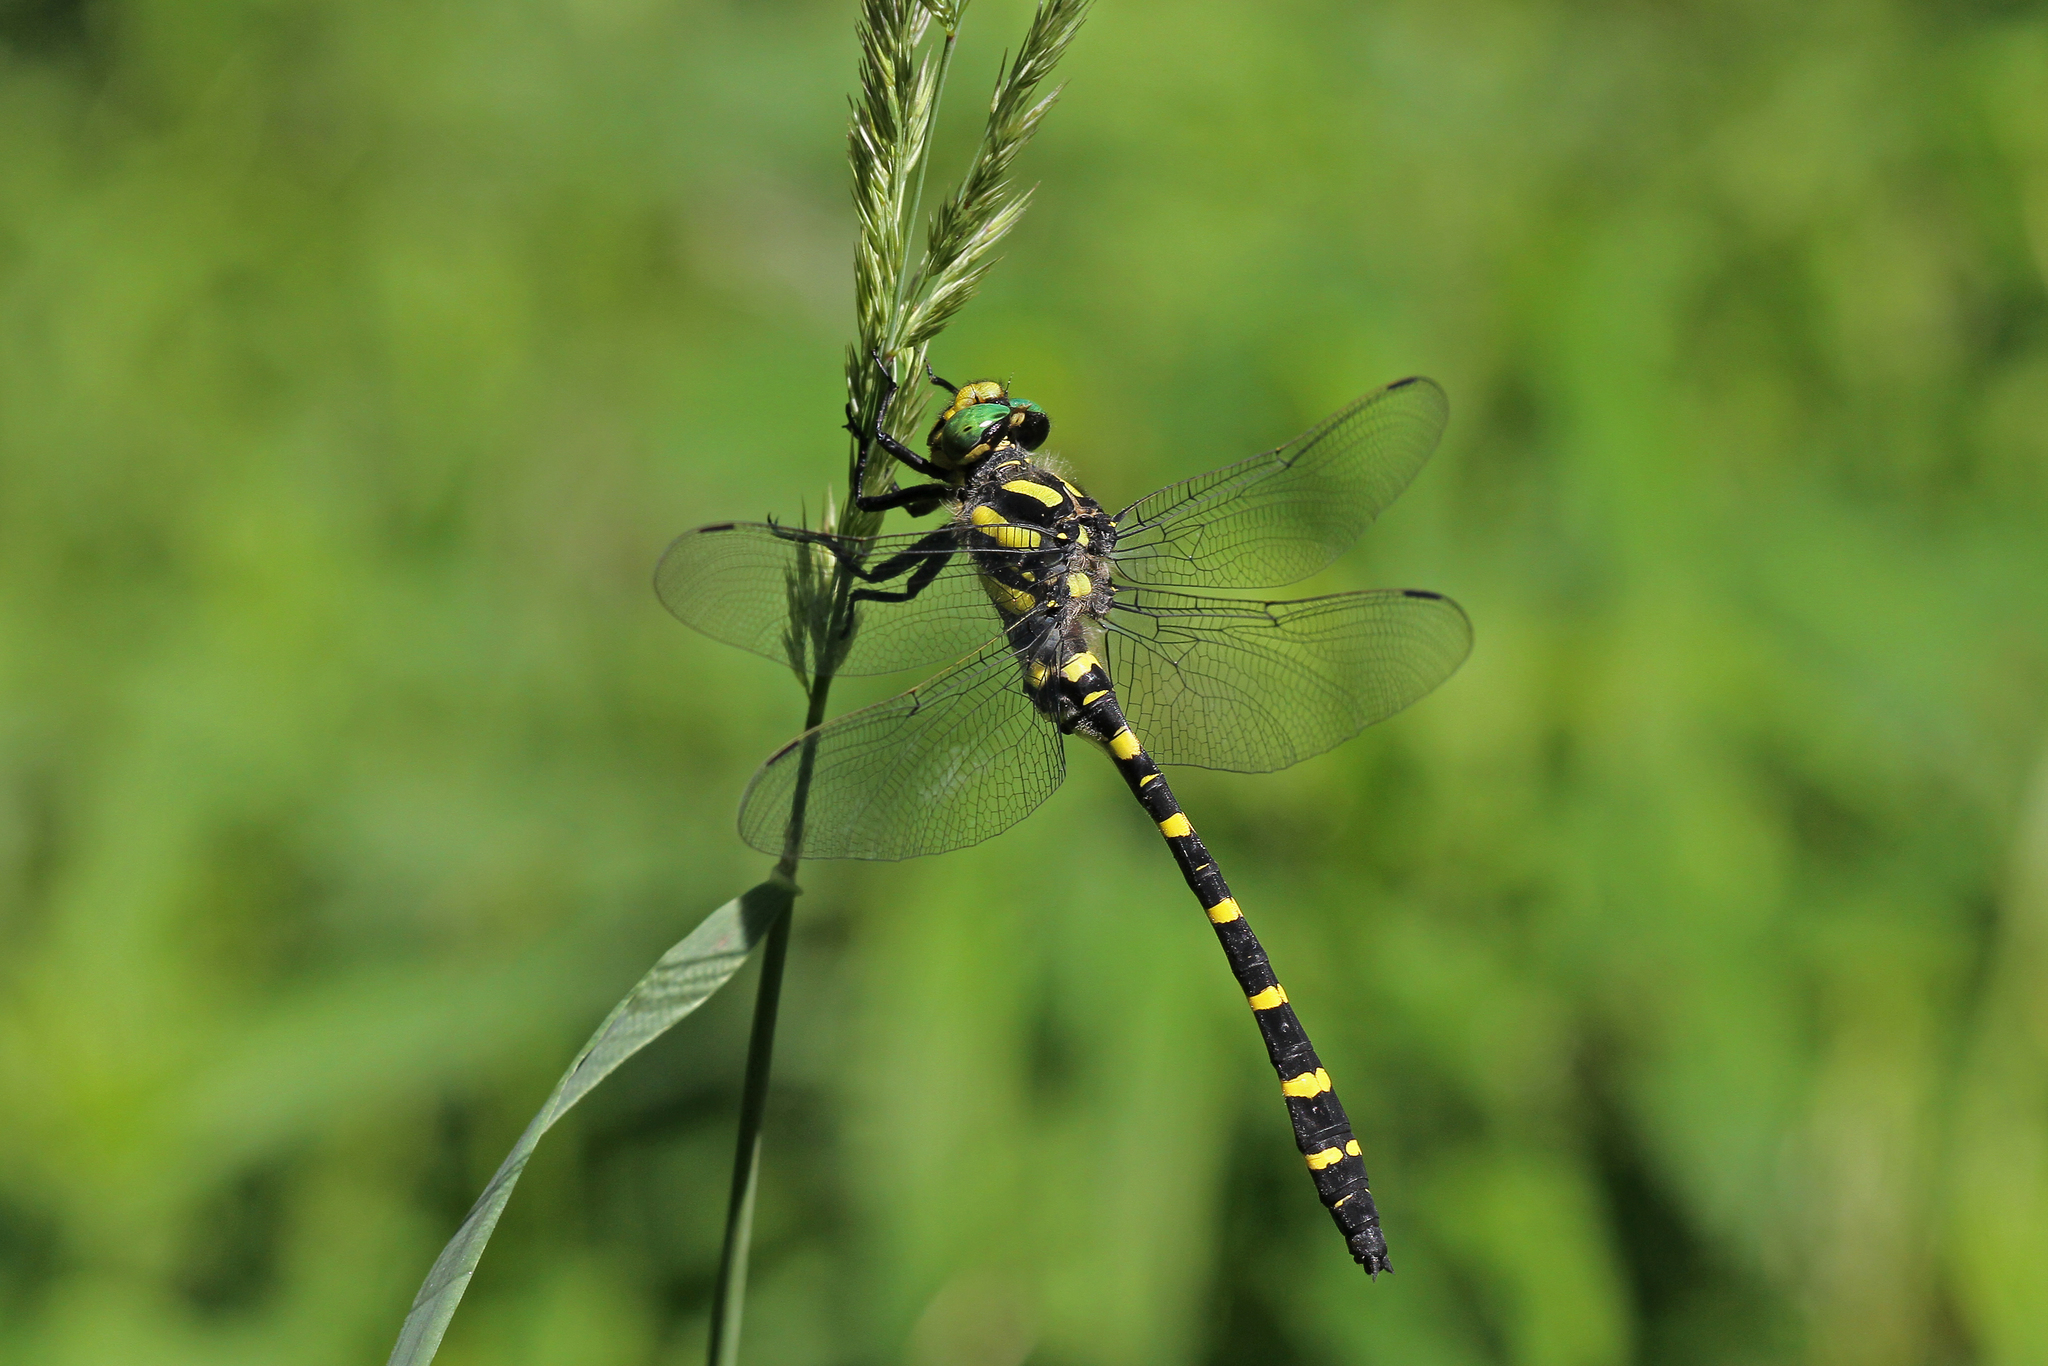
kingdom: Animalia
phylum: Arthropoda
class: Insecta
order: Odonata
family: Cordulegastridae
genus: Cordulegaster
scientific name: Cordulegaster heros
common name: Balkan goldenring
